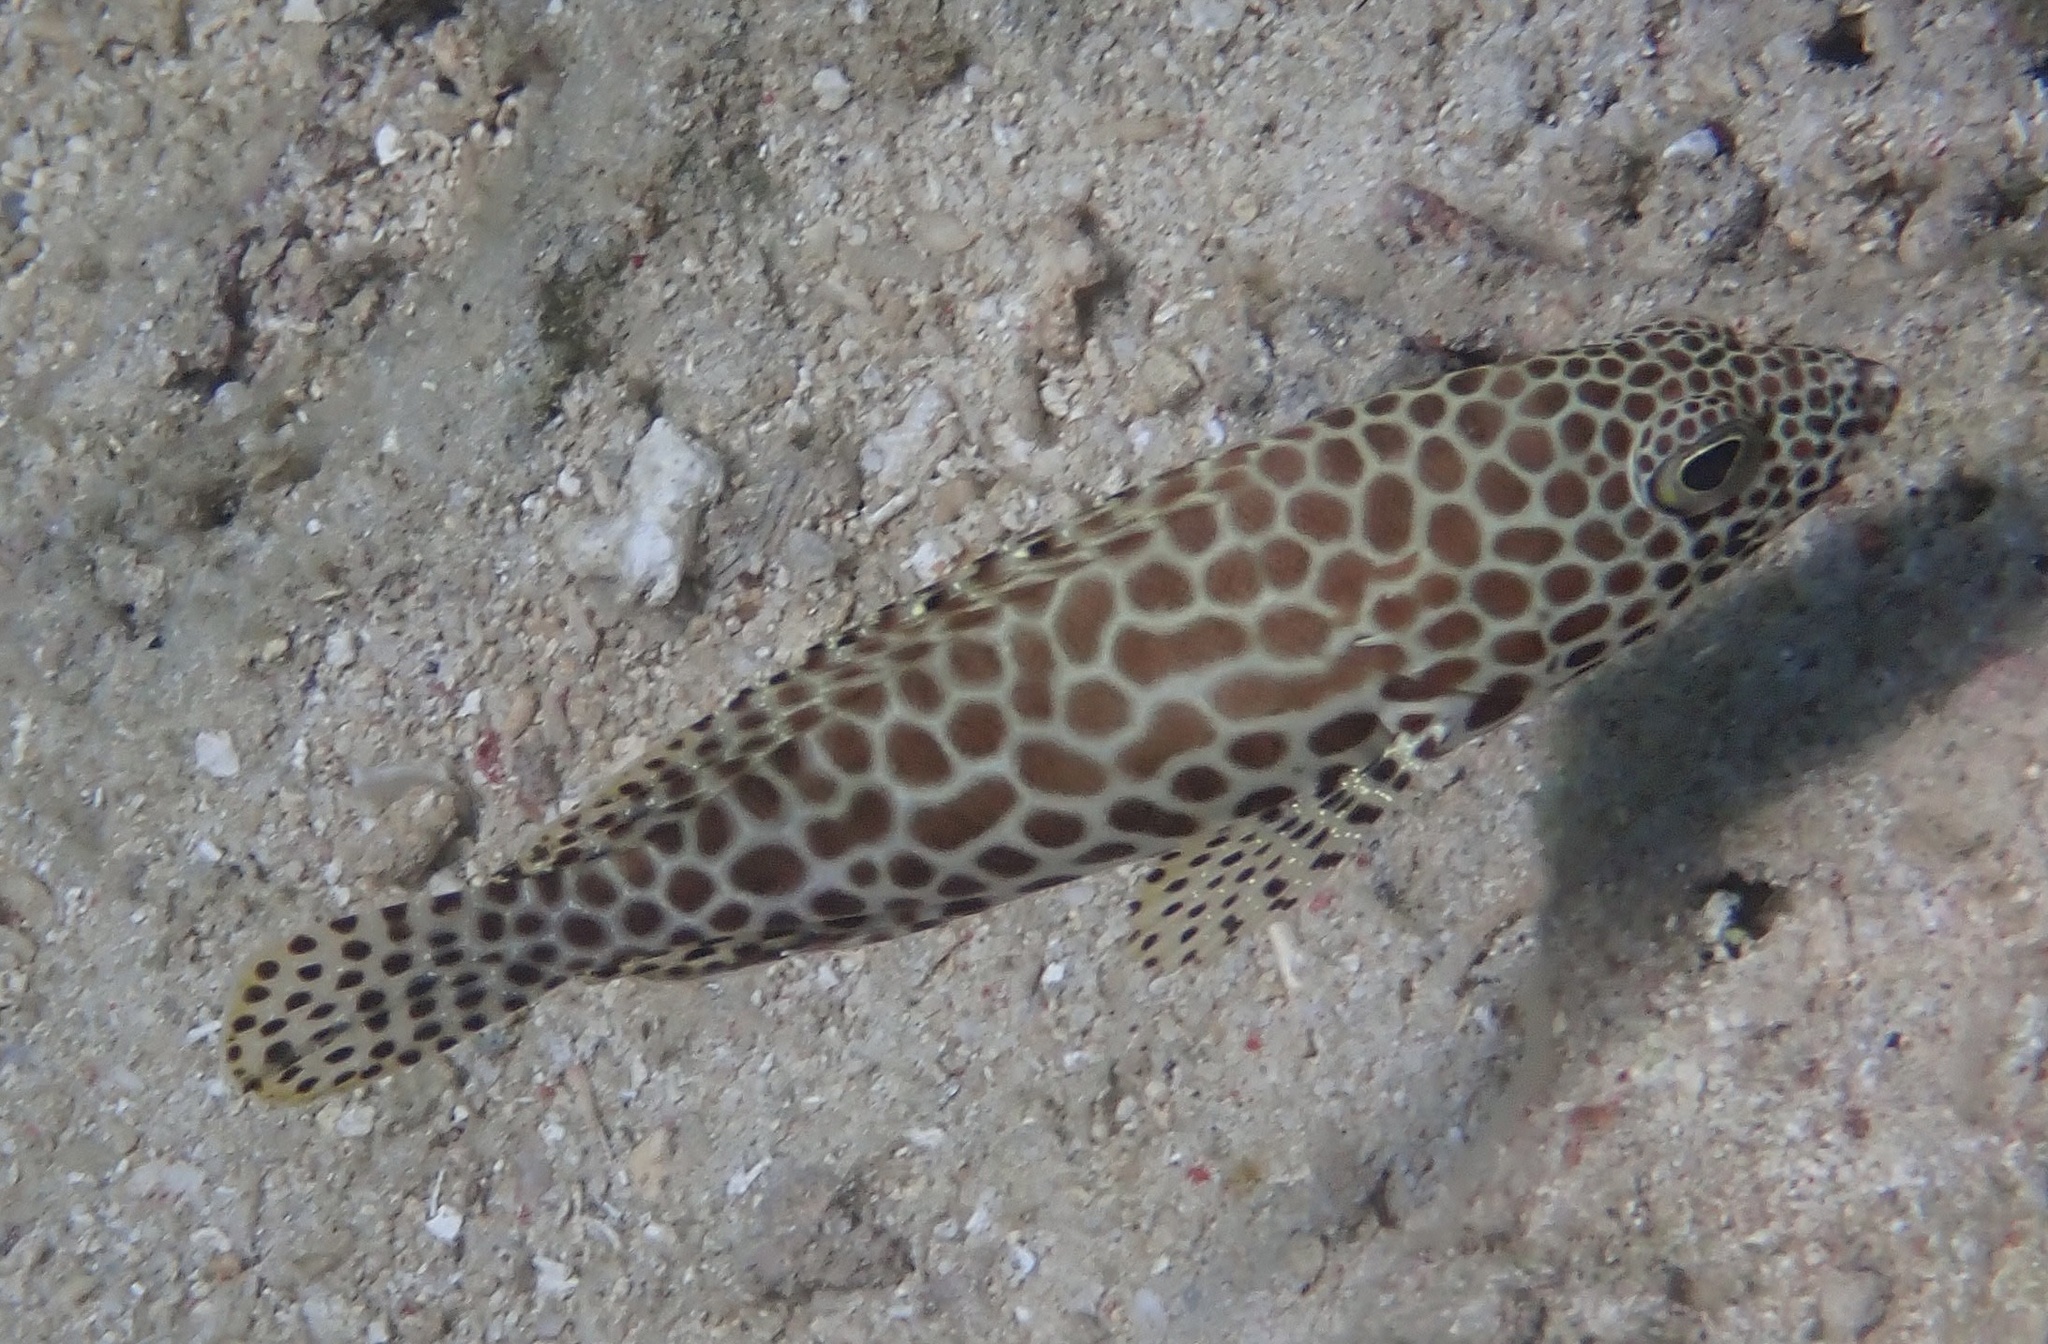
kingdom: Animalia
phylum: Chordata
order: Perciformes
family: Serranidae
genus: Epinephelus
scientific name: Epinephelus merra
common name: Honeycomb grouper
